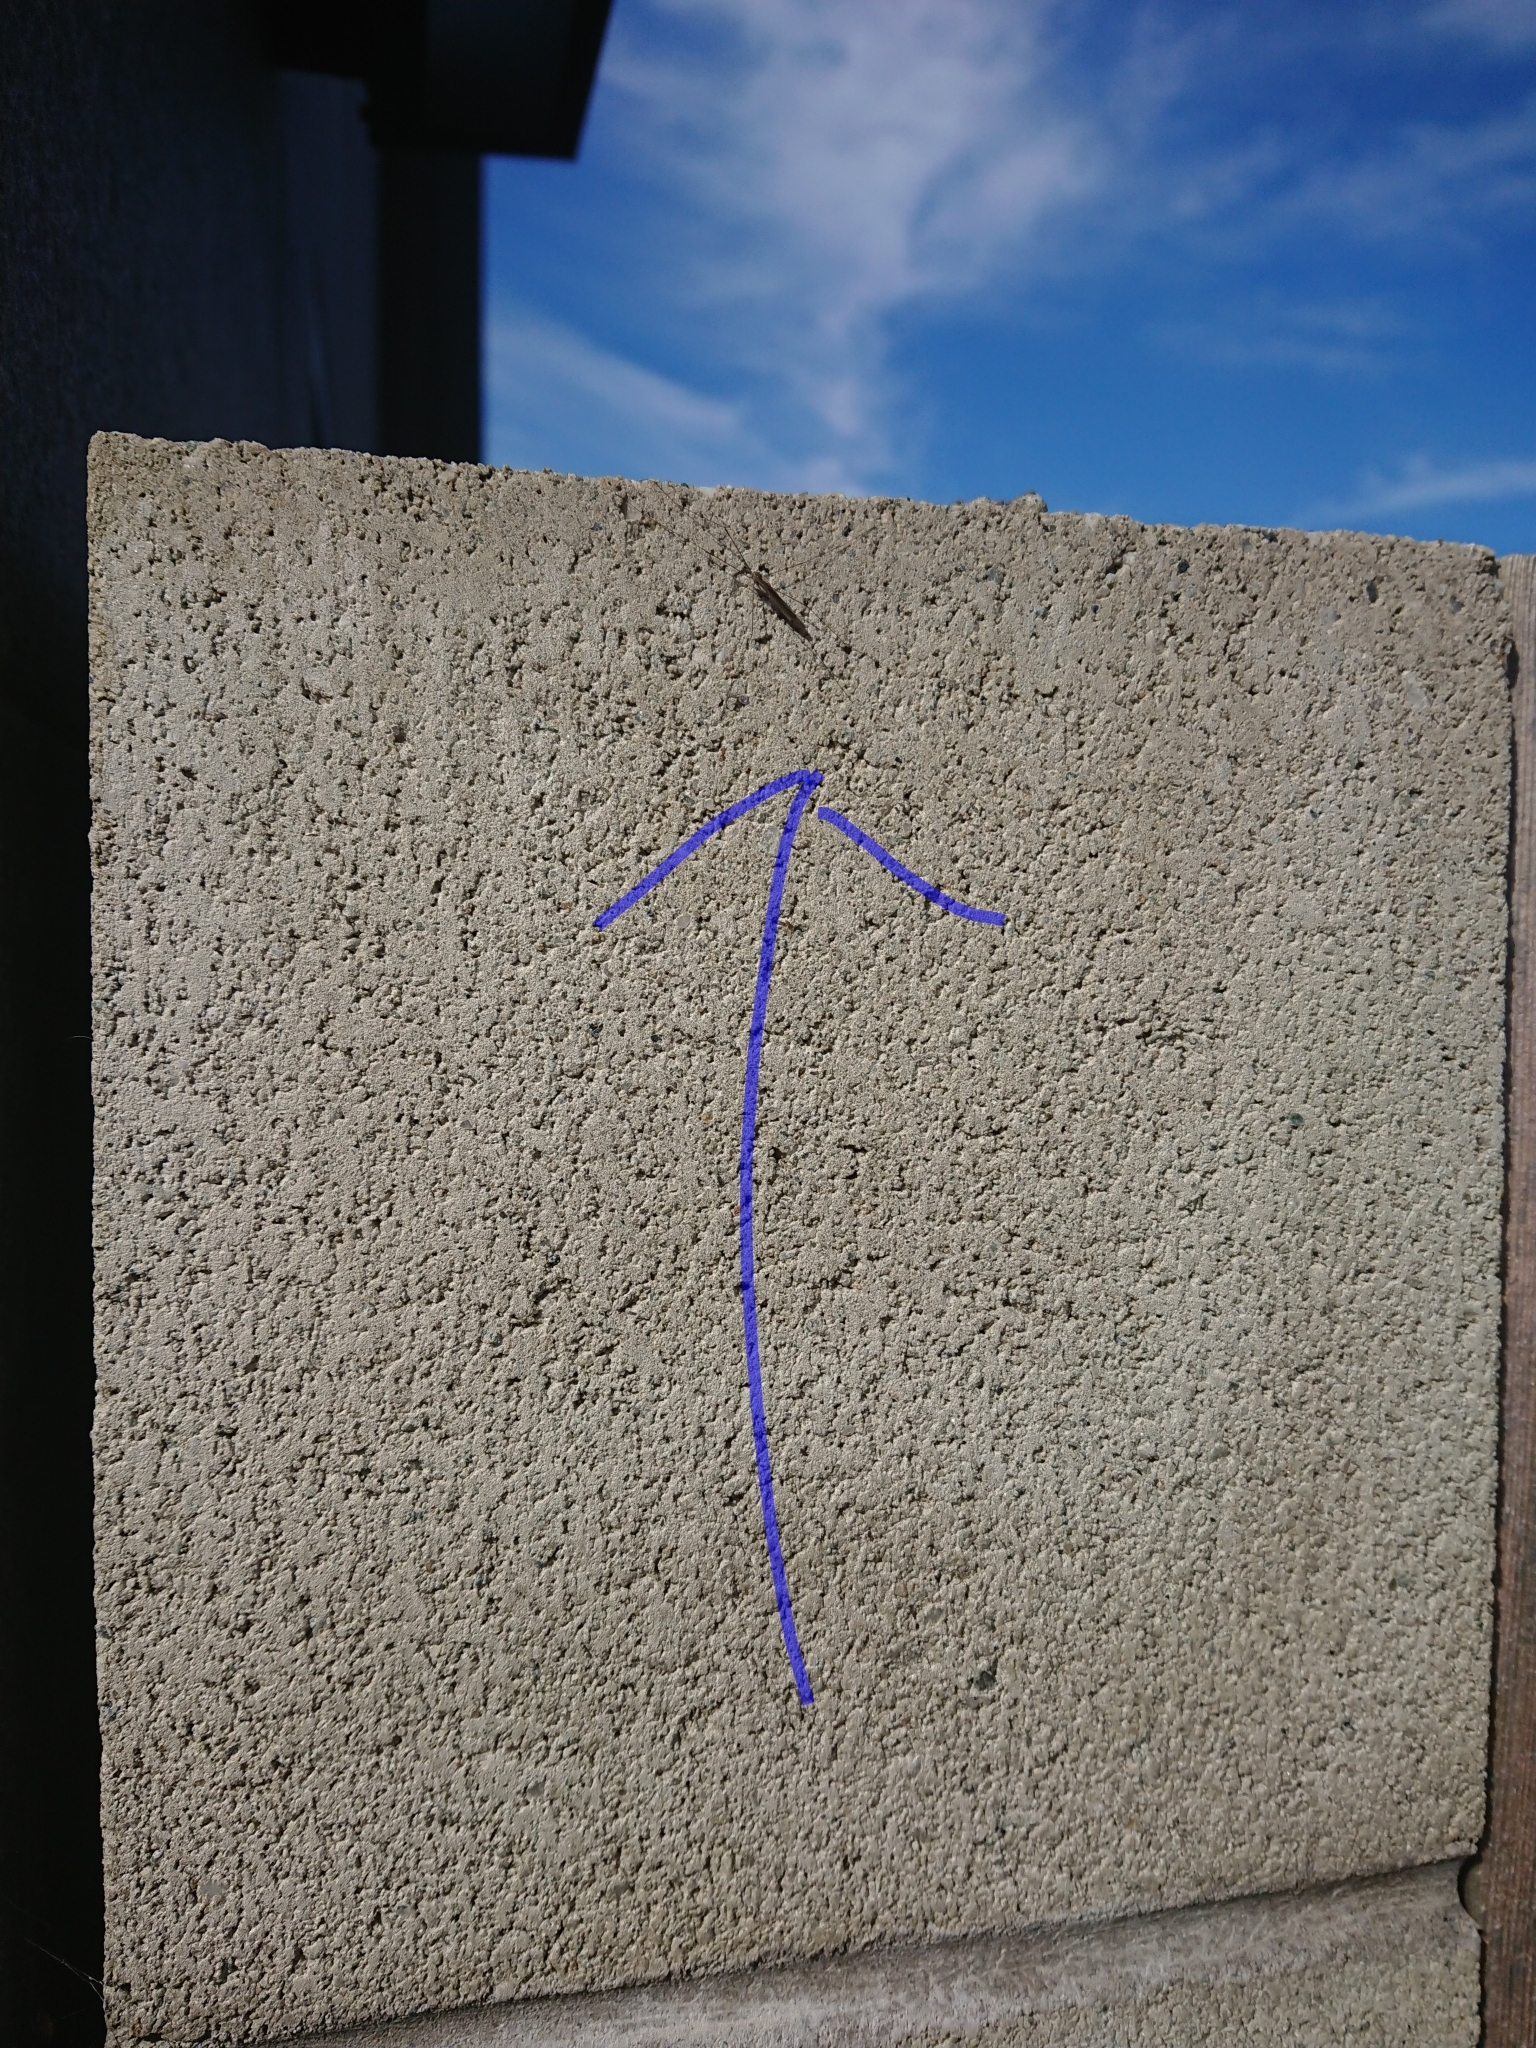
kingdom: Animalia
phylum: Arthropoda
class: Insecta
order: Diptera
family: Limoniidae
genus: Dicranomyia
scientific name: Dicranomyia aegrotans
